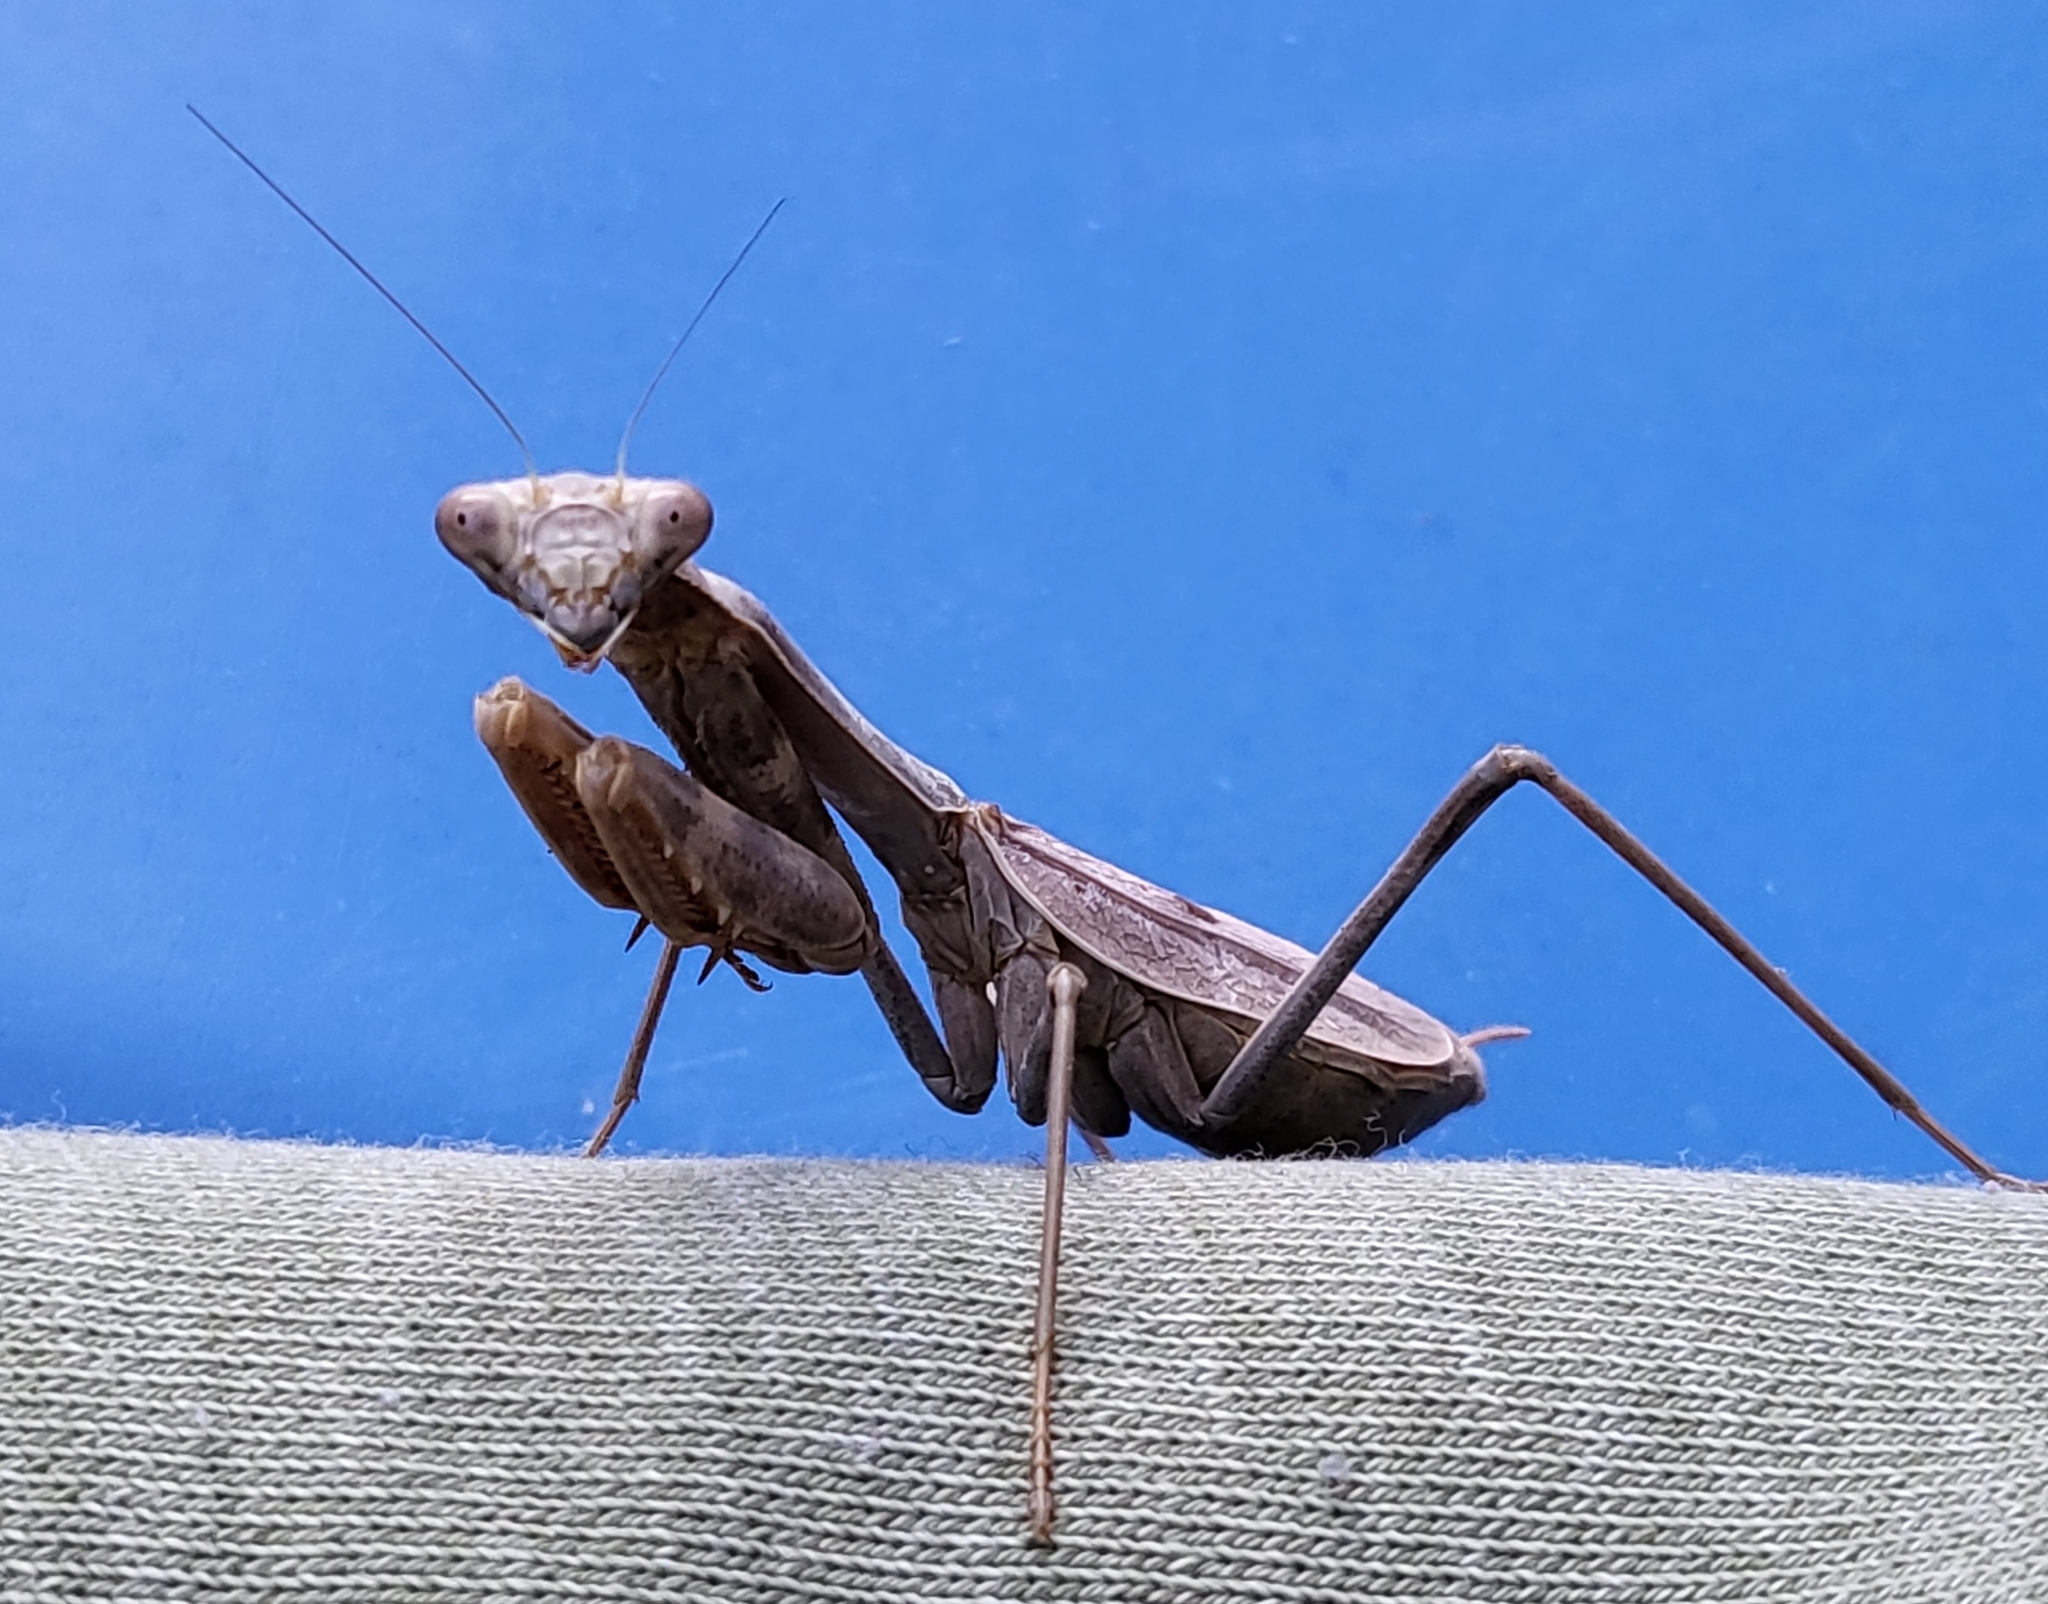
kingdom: Animalia
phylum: Arthropoda
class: Insecta
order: Mantodea
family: Mantidae
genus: Stagmomantis
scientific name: Stagmomantis limbata
